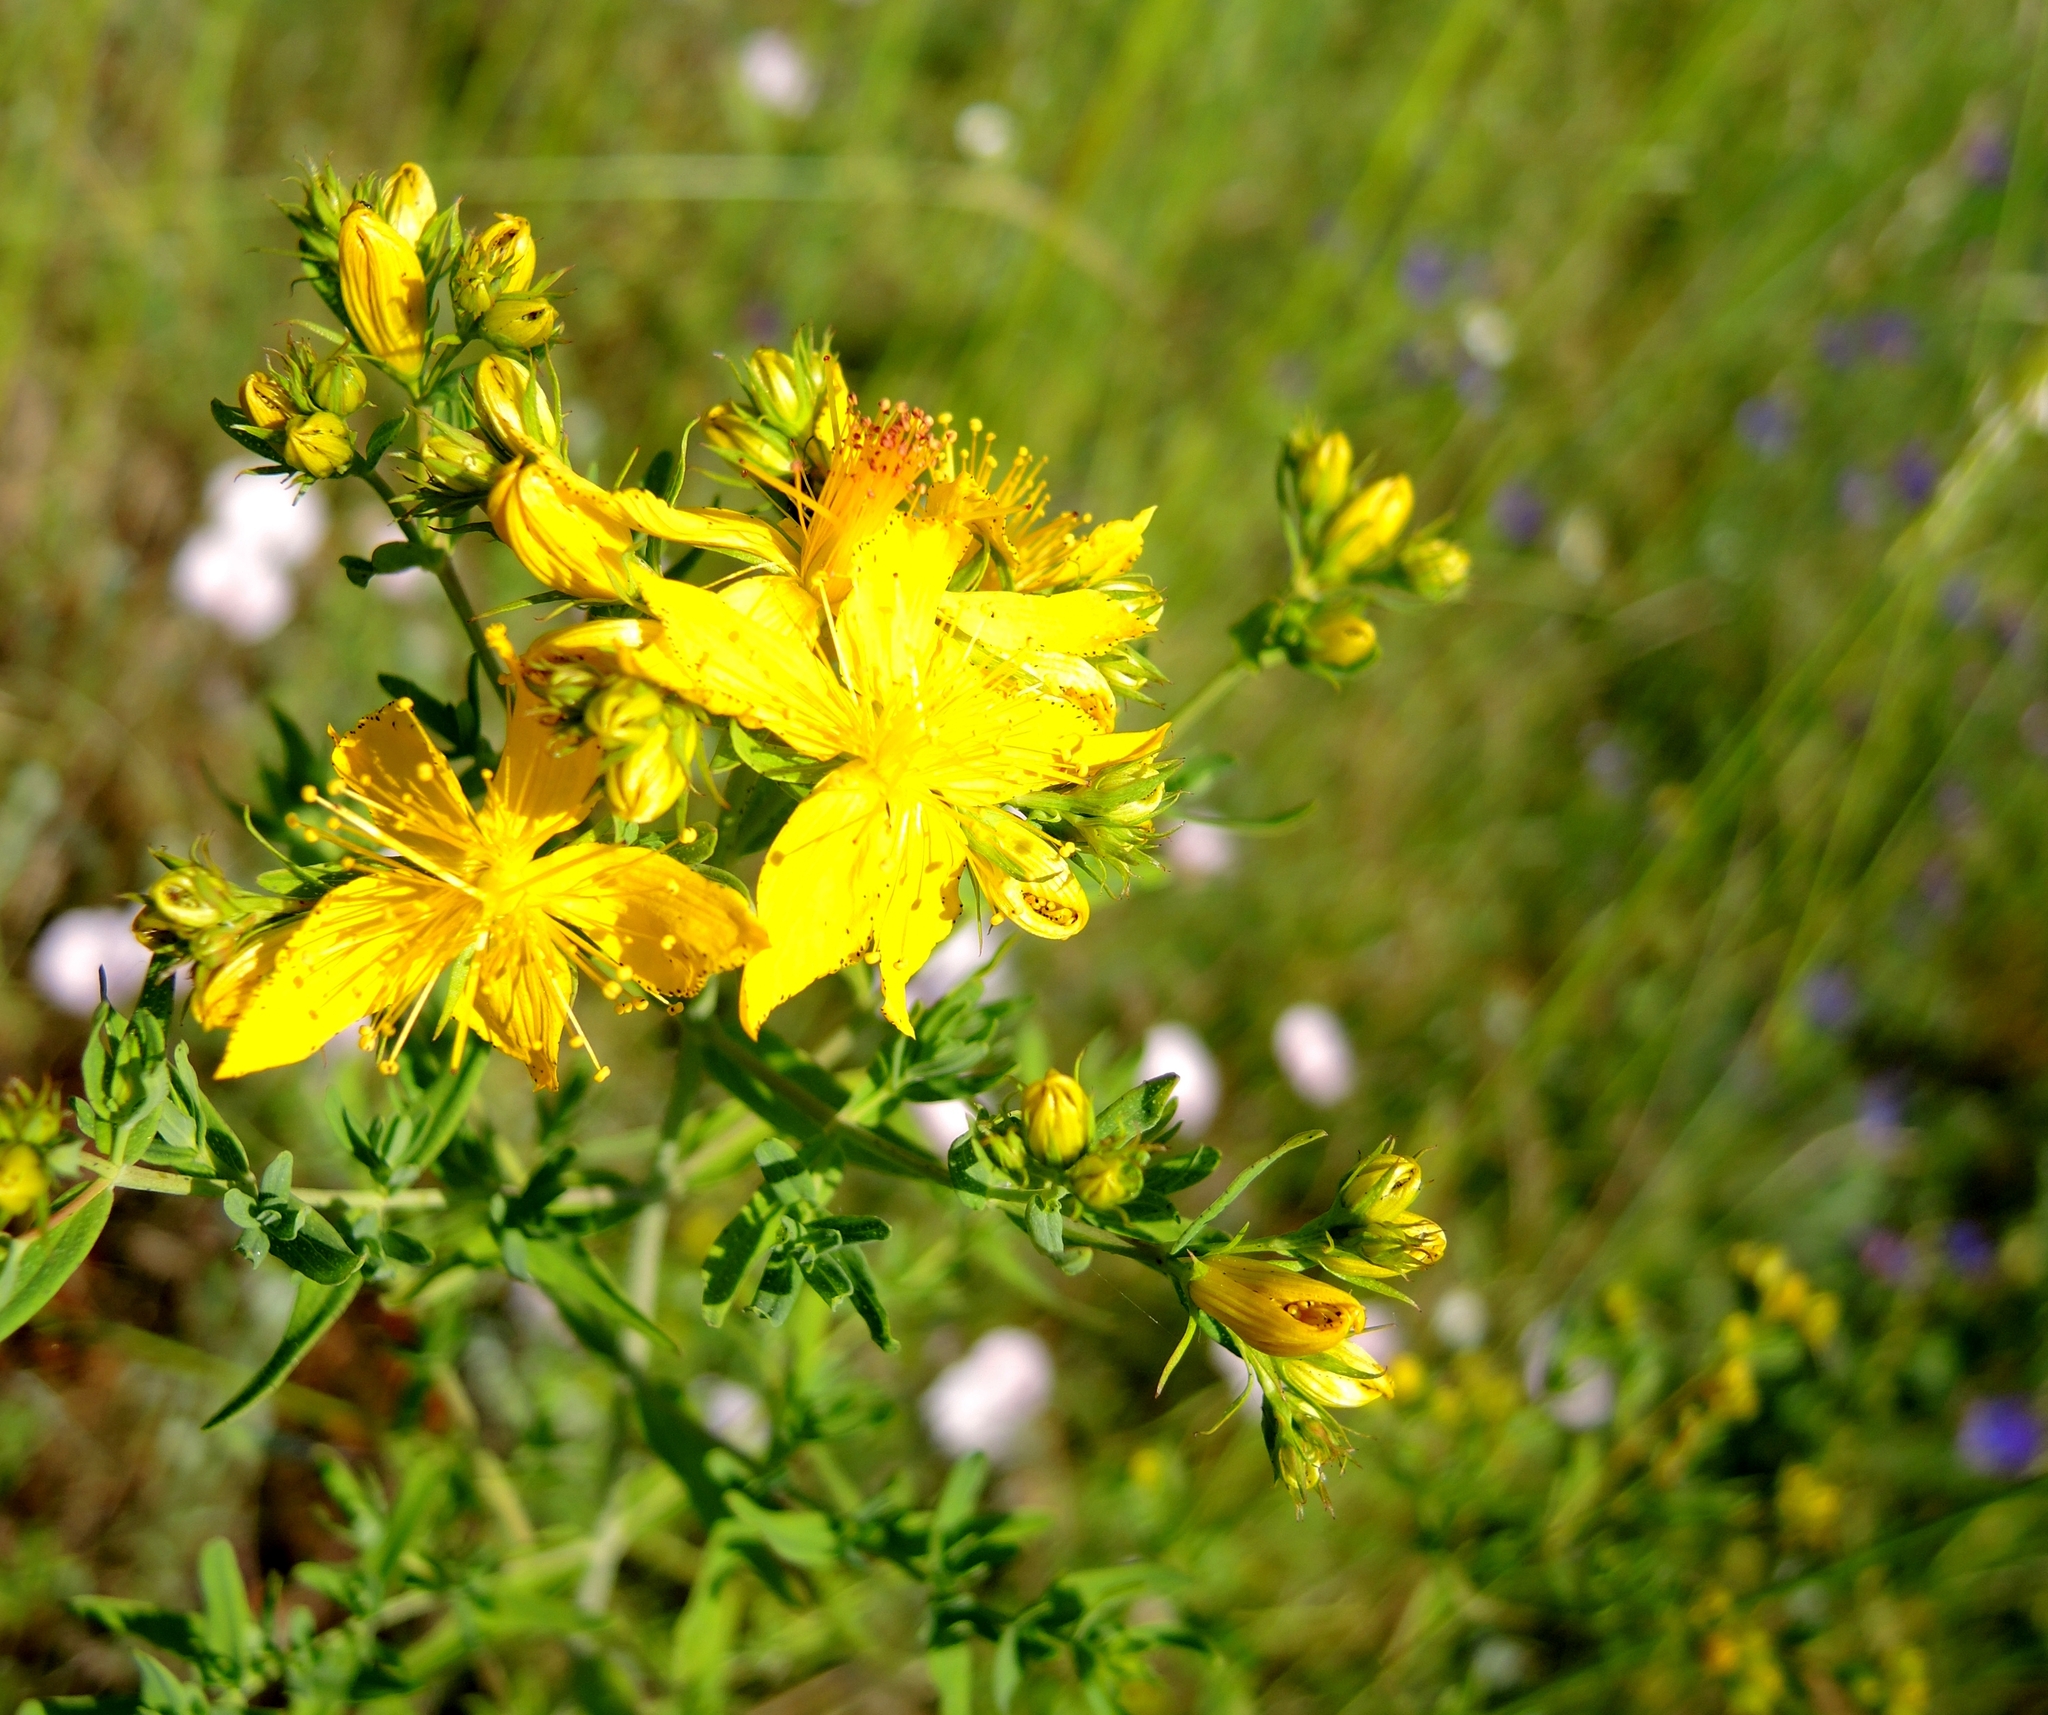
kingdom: Plantae
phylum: Tracheophyta
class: Magnoliopsida
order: Malpighiales
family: Hypericaceae
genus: Hypericum
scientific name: Hypericum perforatum
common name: Common st. johnswort
